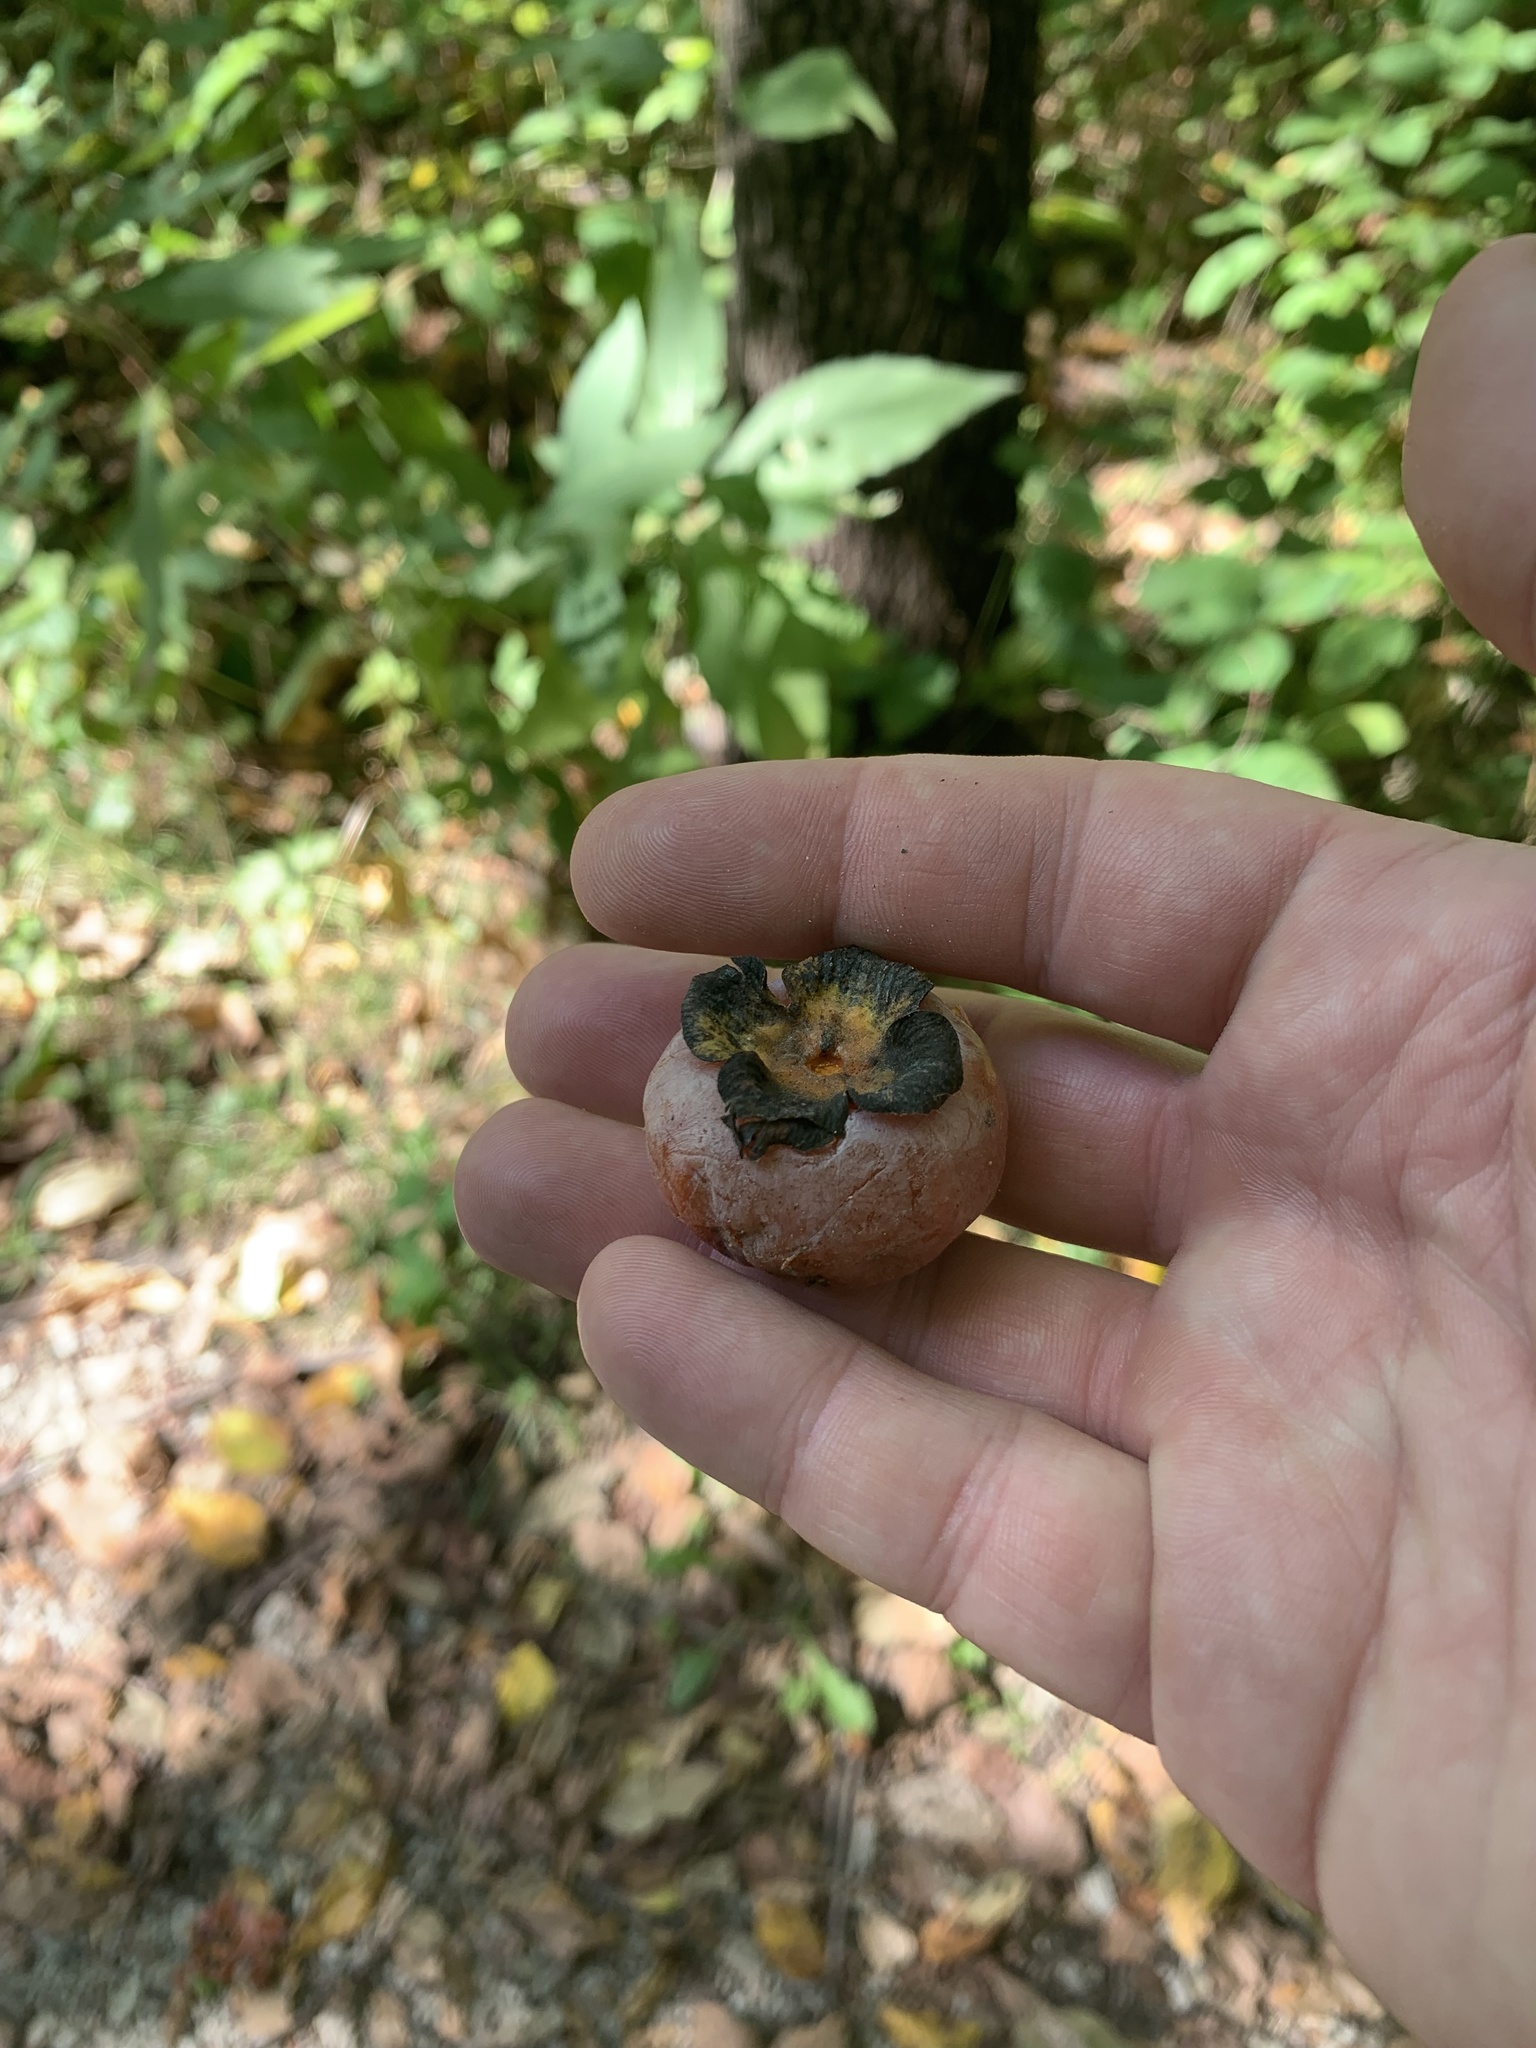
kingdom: Plantae
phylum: Tracheophyta
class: Magnoliopsida
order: Ericales
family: Ebenaceae
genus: Diospyros
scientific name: Diospyros virginiana
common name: Persimmon
